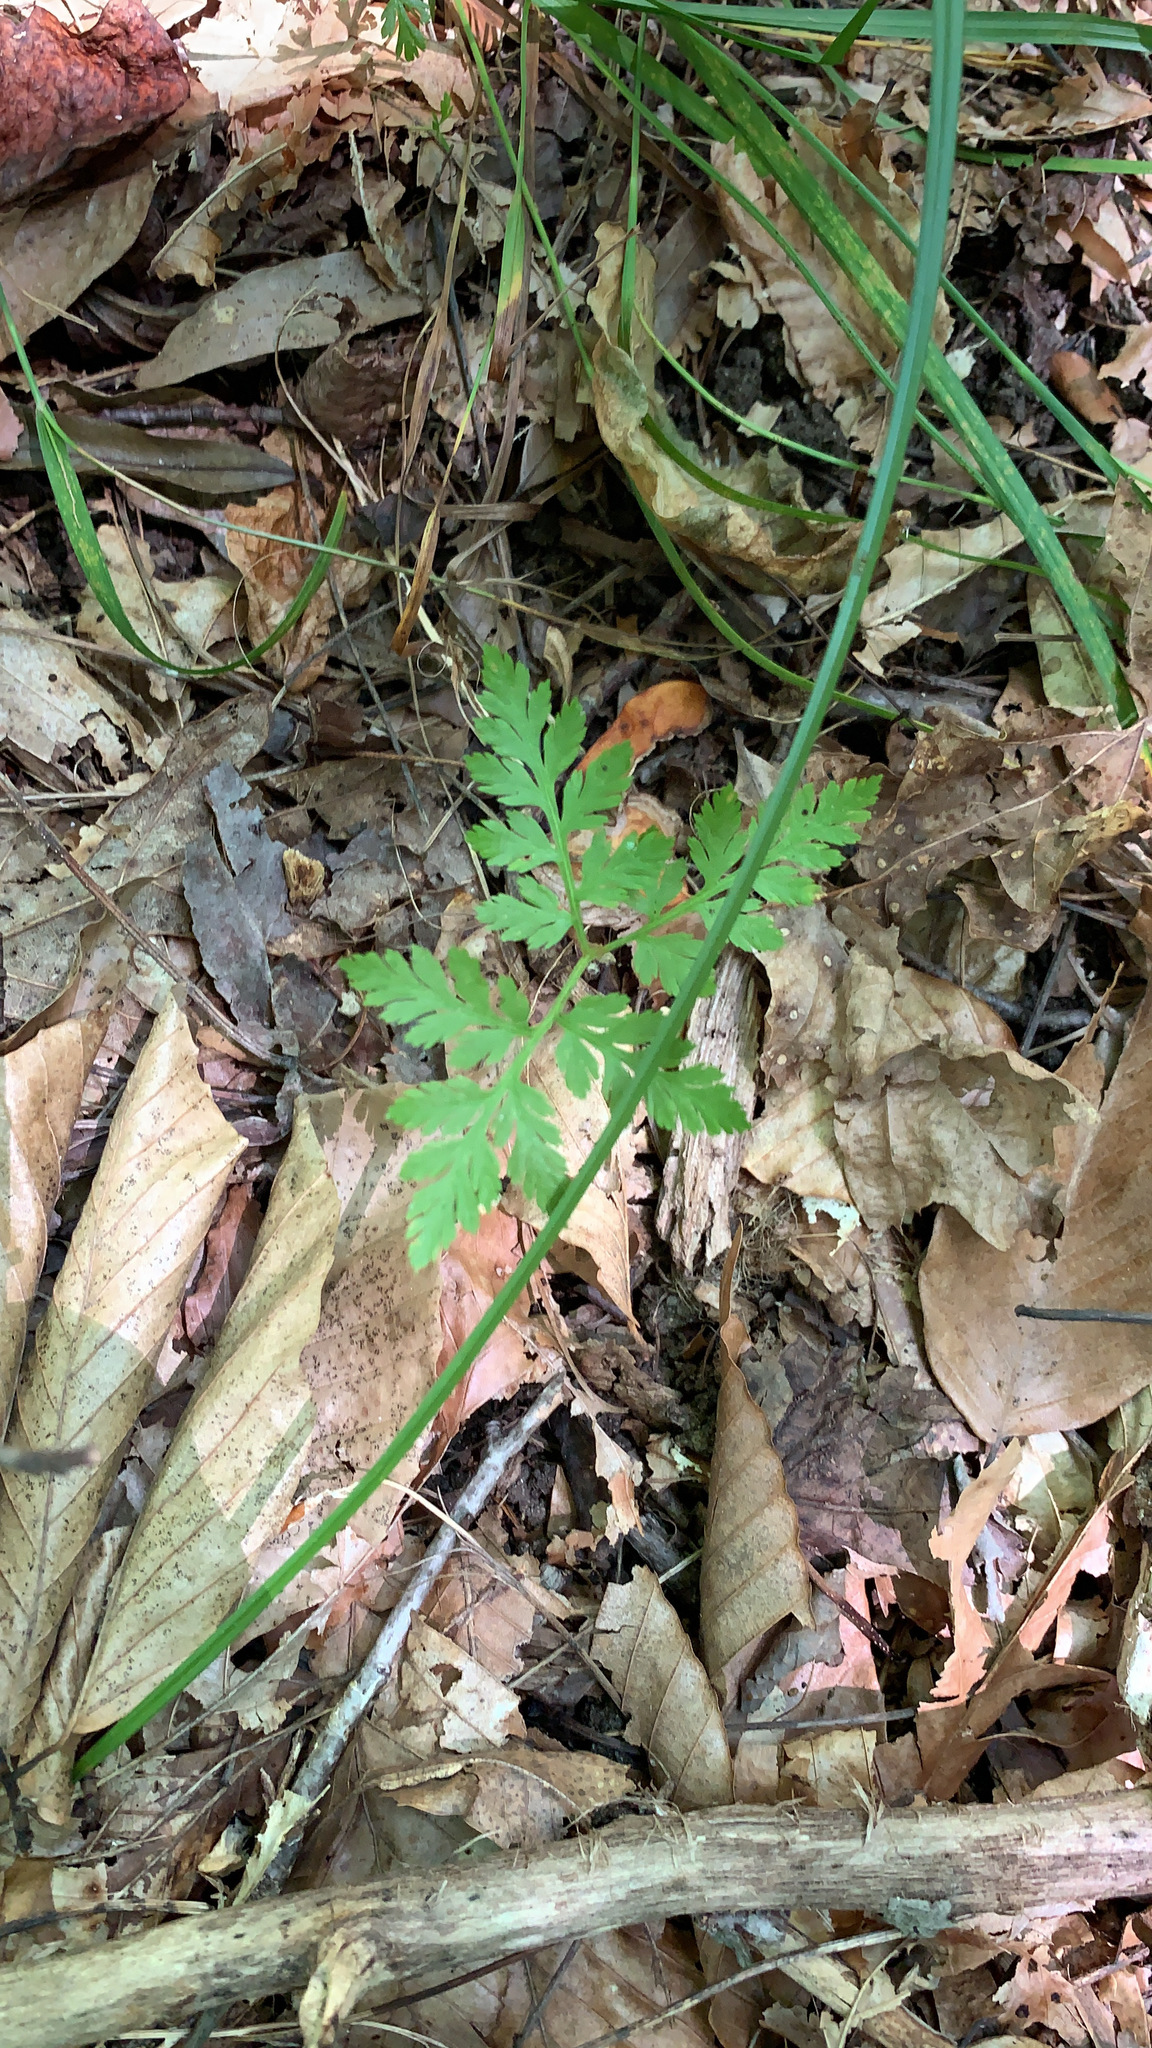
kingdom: Plantae
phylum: Tracheophyta
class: Polypodiopsida
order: Ophioglossales
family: Ophioglossaceae
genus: Botrypus
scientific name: Botrypus virginianus
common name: Common grapefern
